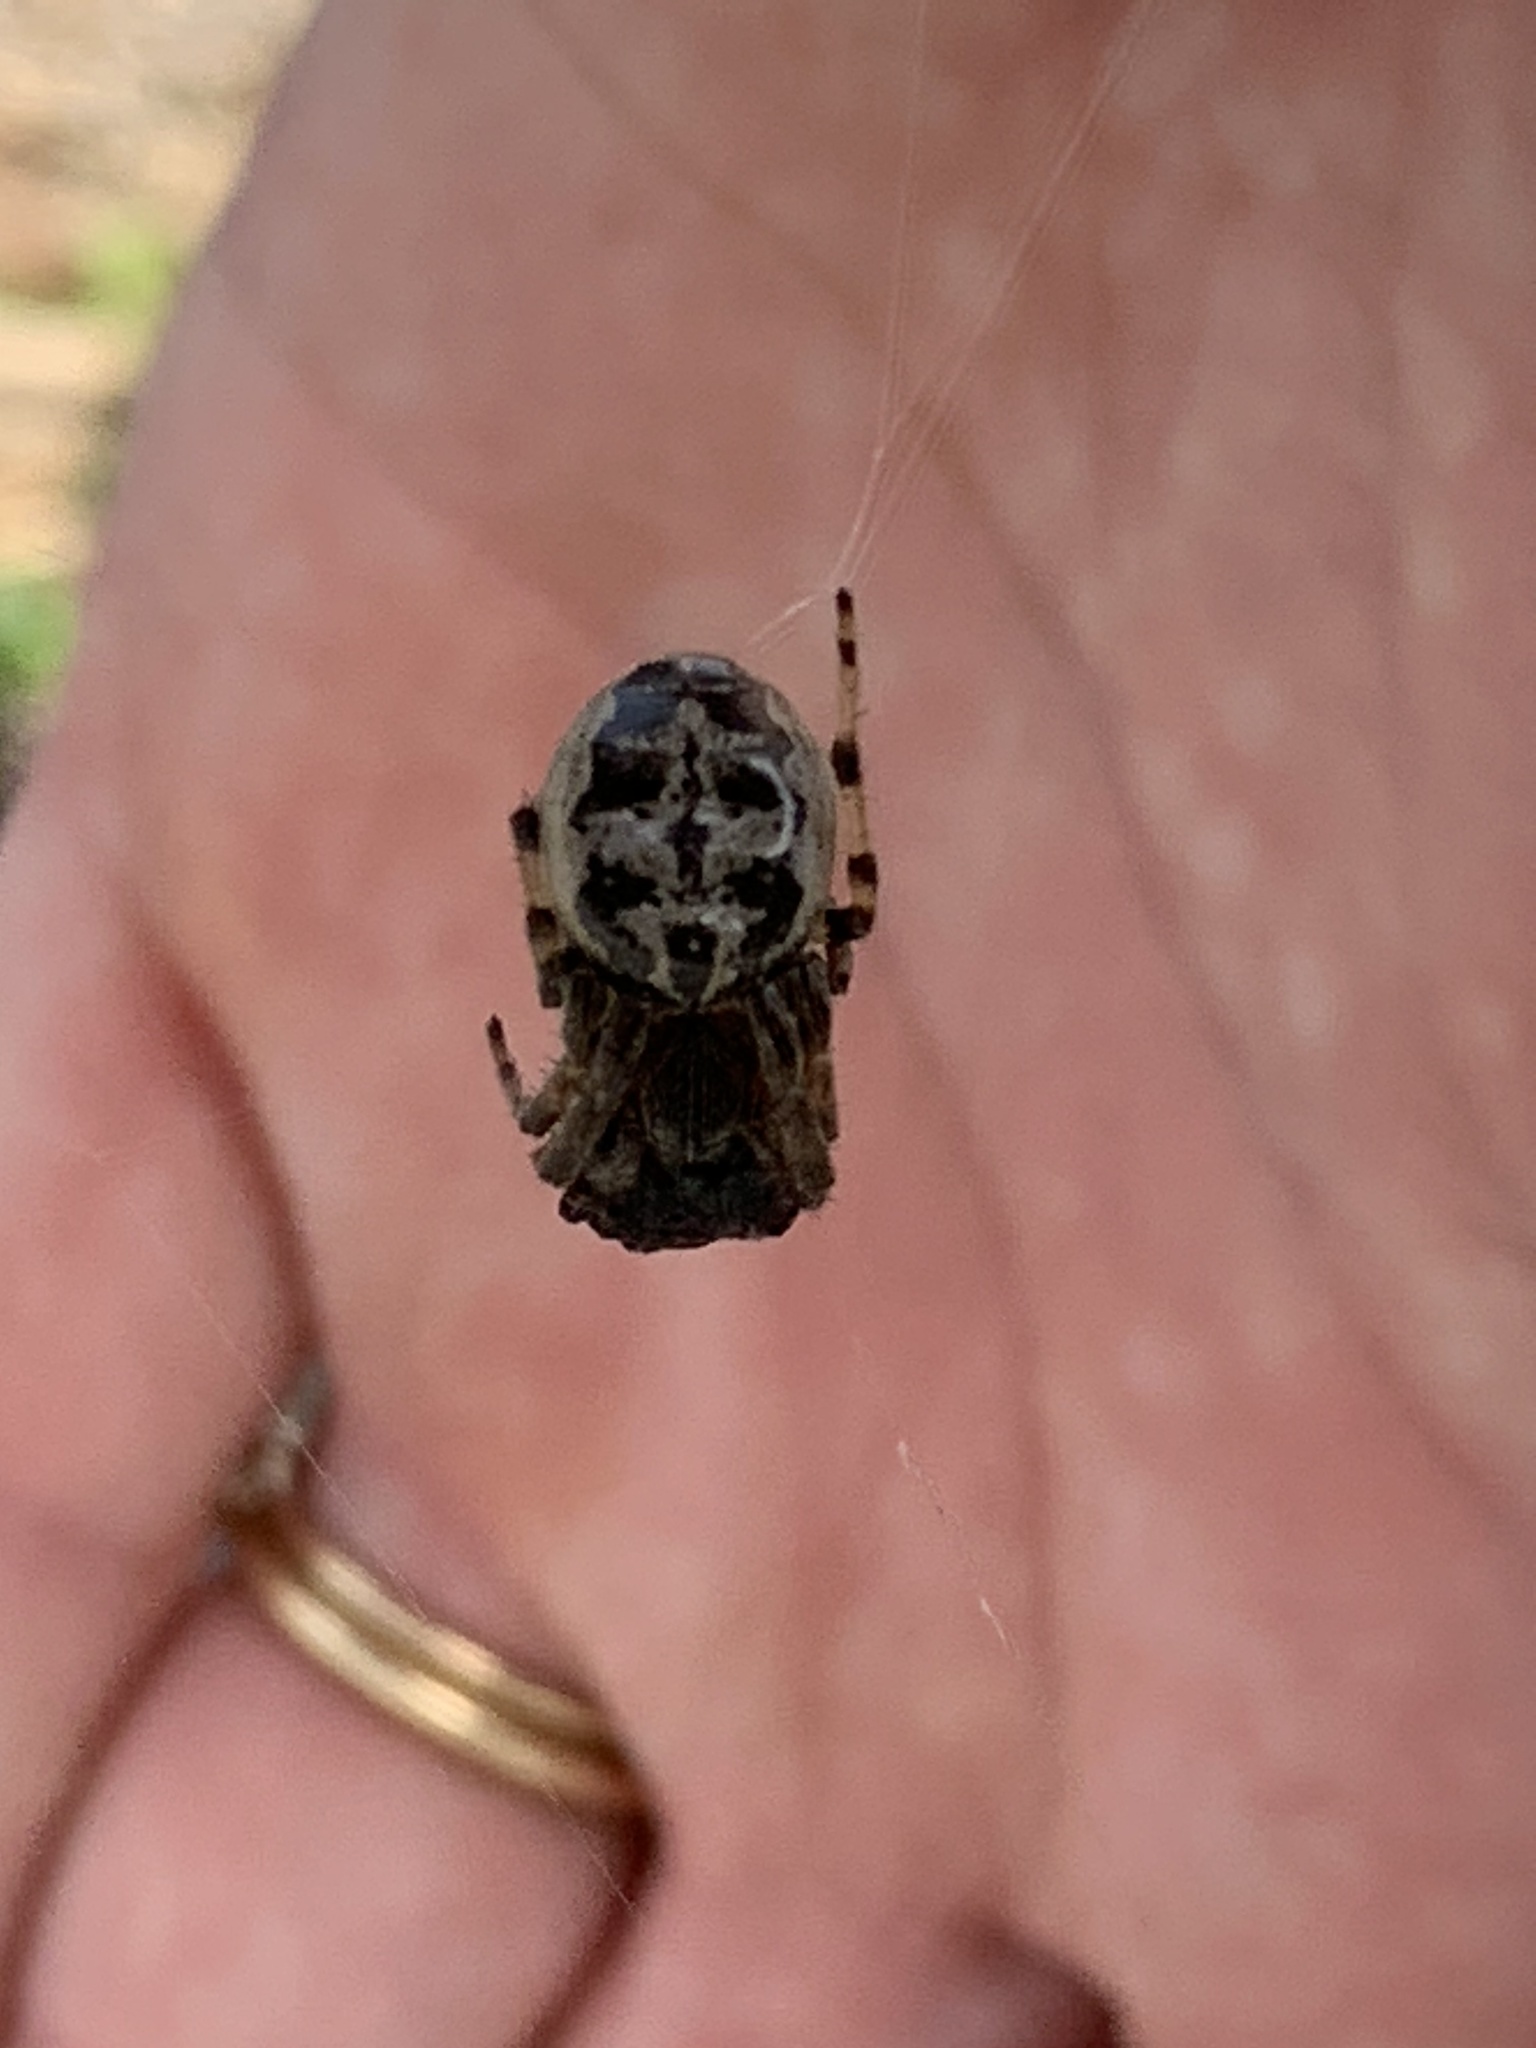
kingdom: Animalia
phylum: Arthropoda
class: Arachnida
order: Araneae
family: Araneidae
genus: Larinioides
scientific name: Larinioides cornutus
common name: Furrow orbweaver
